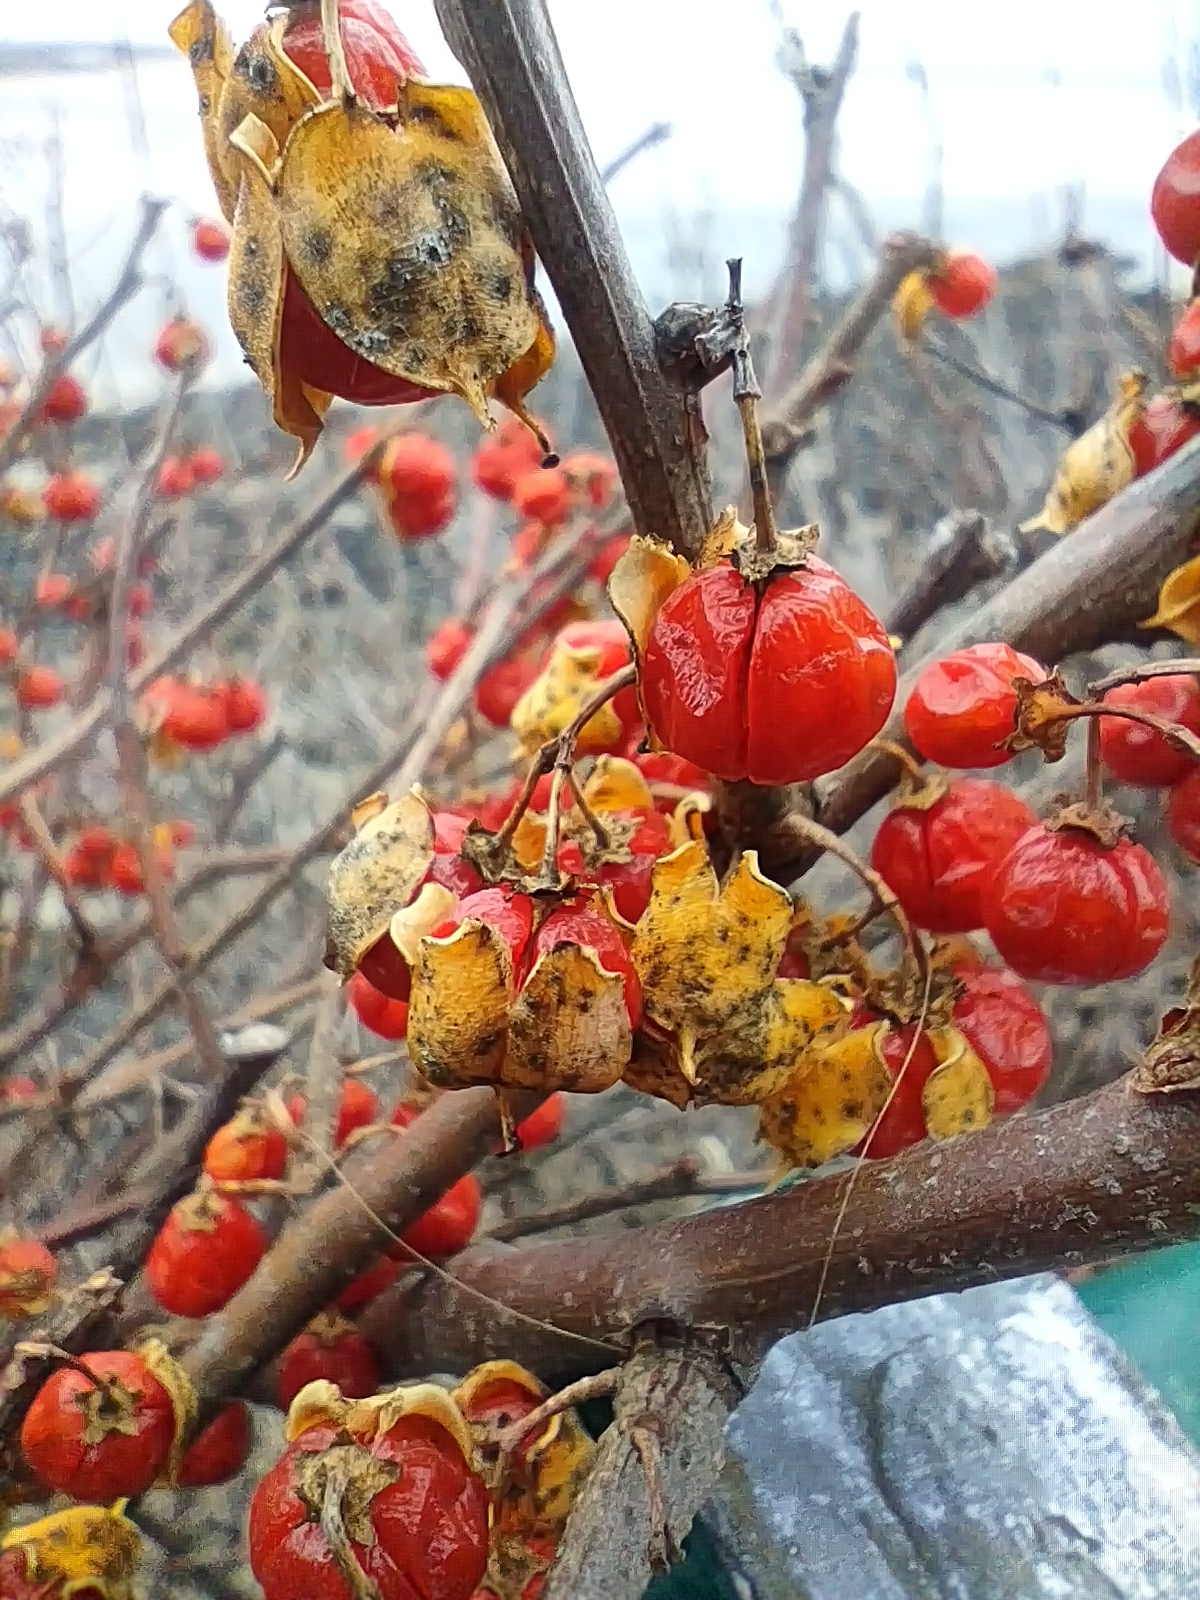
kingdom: Plantae
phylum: Tracheophyta
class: Magnoliopsida
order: Celastrales
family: Celastraceae
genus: Celastrus
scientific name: Celastrus orbiculatus
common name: Oriental bittersweet
